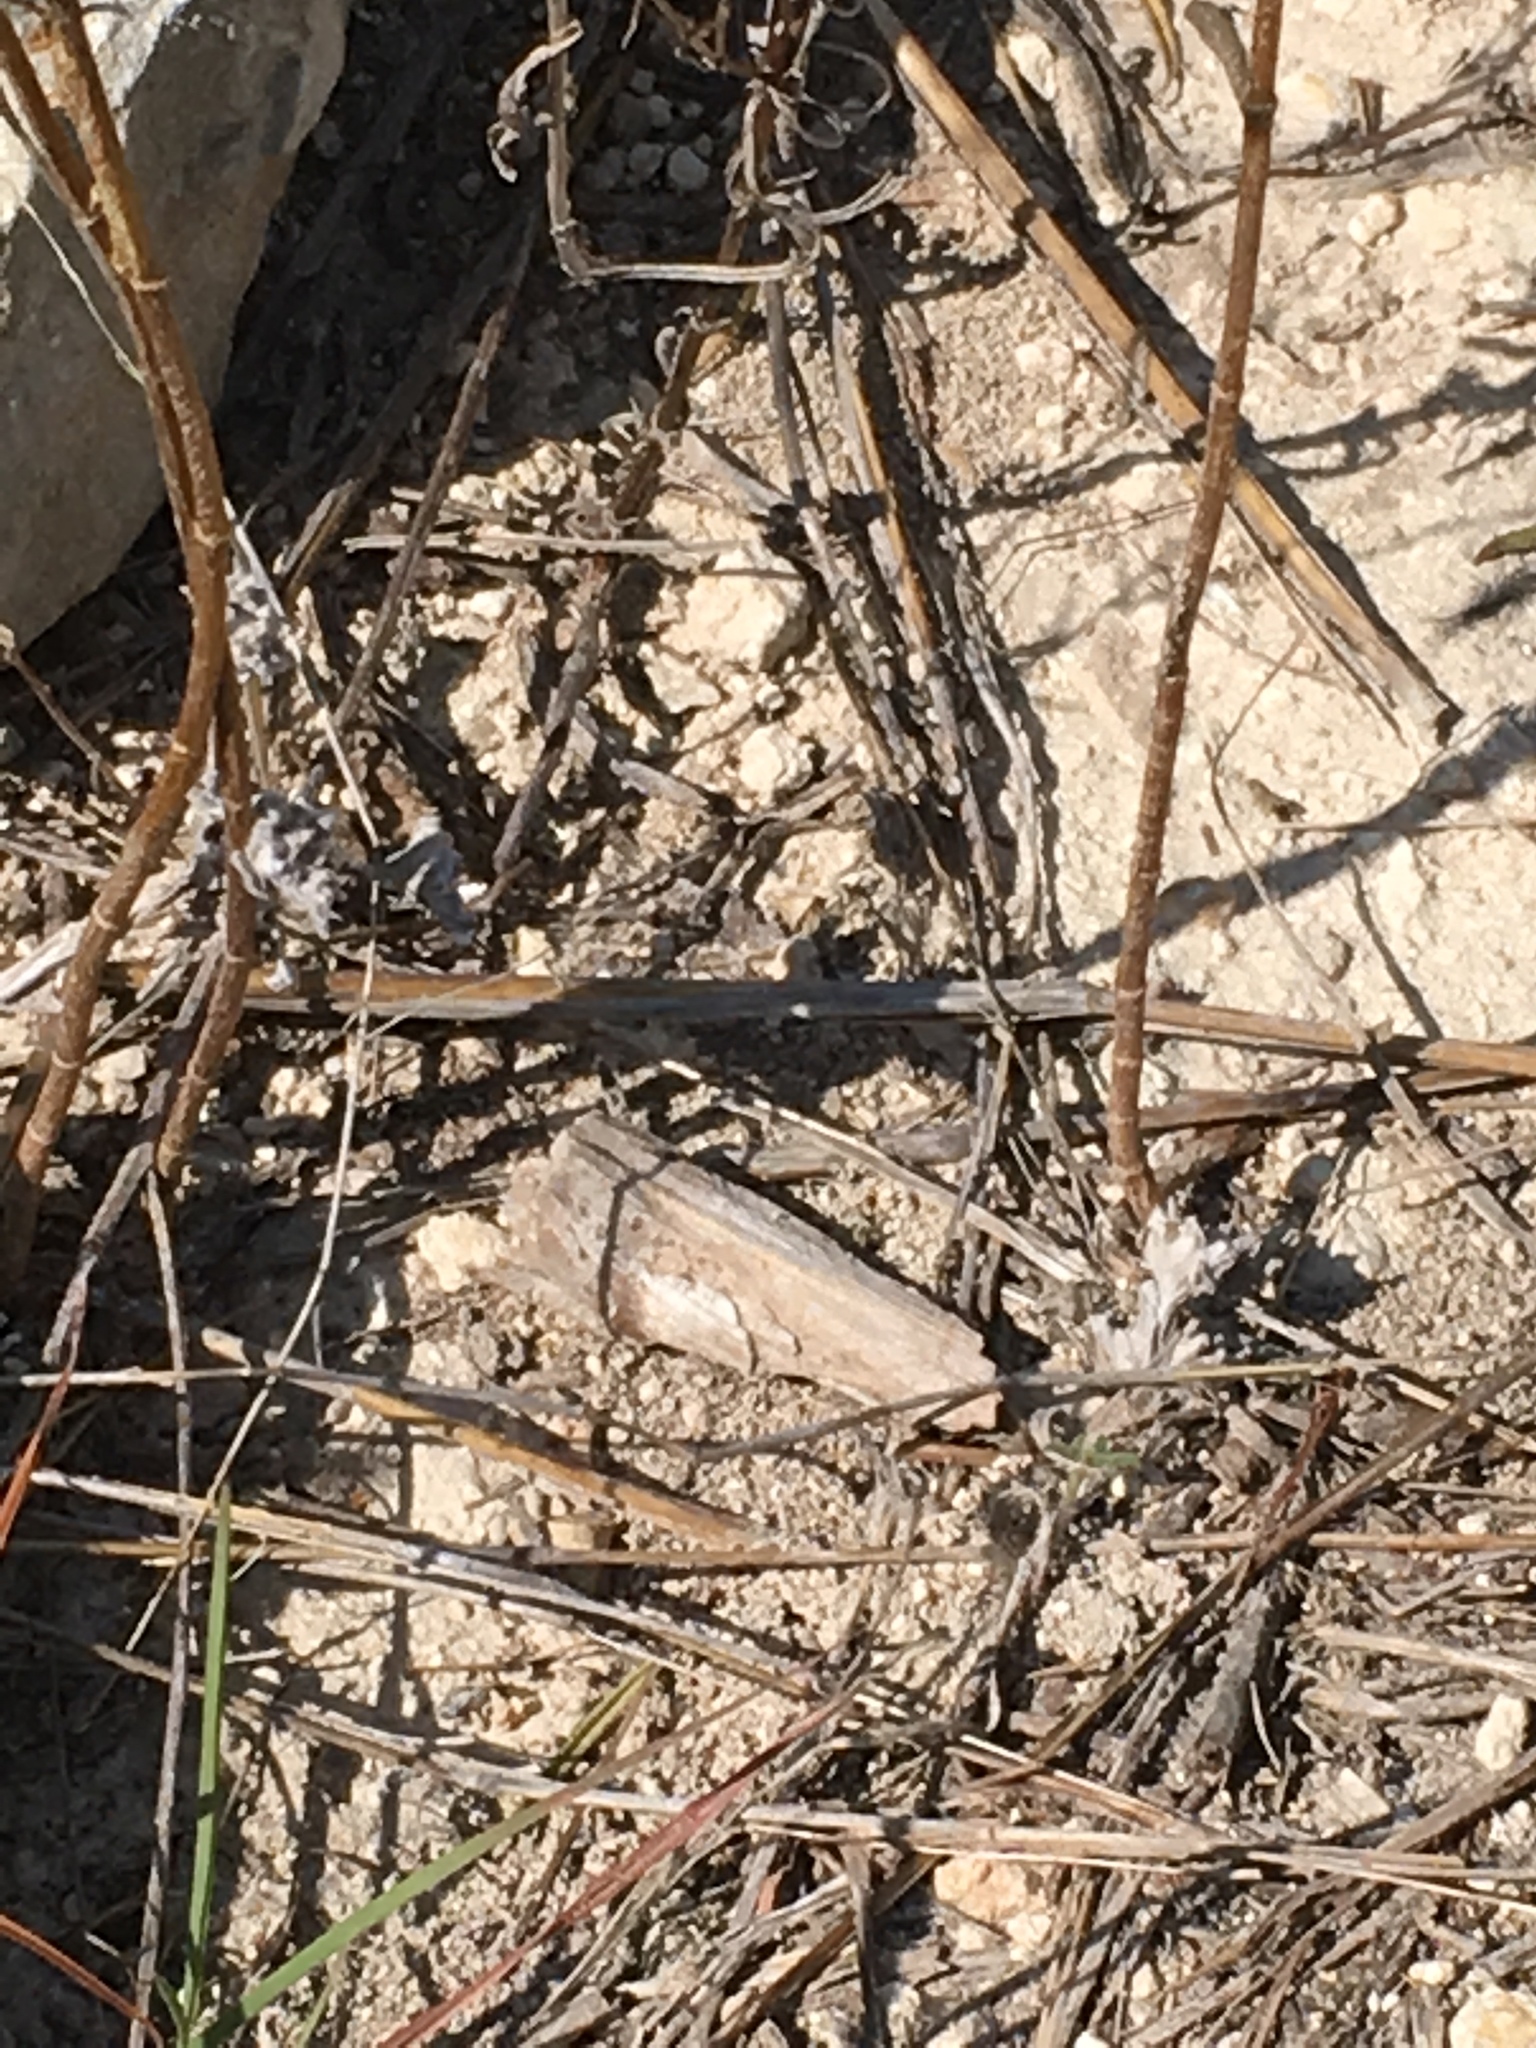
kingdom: Animalia
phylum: Chordata
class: Squamata
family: Crotaphytidae
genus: Crotaphytus
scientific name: Crotaphytus collaris
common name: Collared lizard
